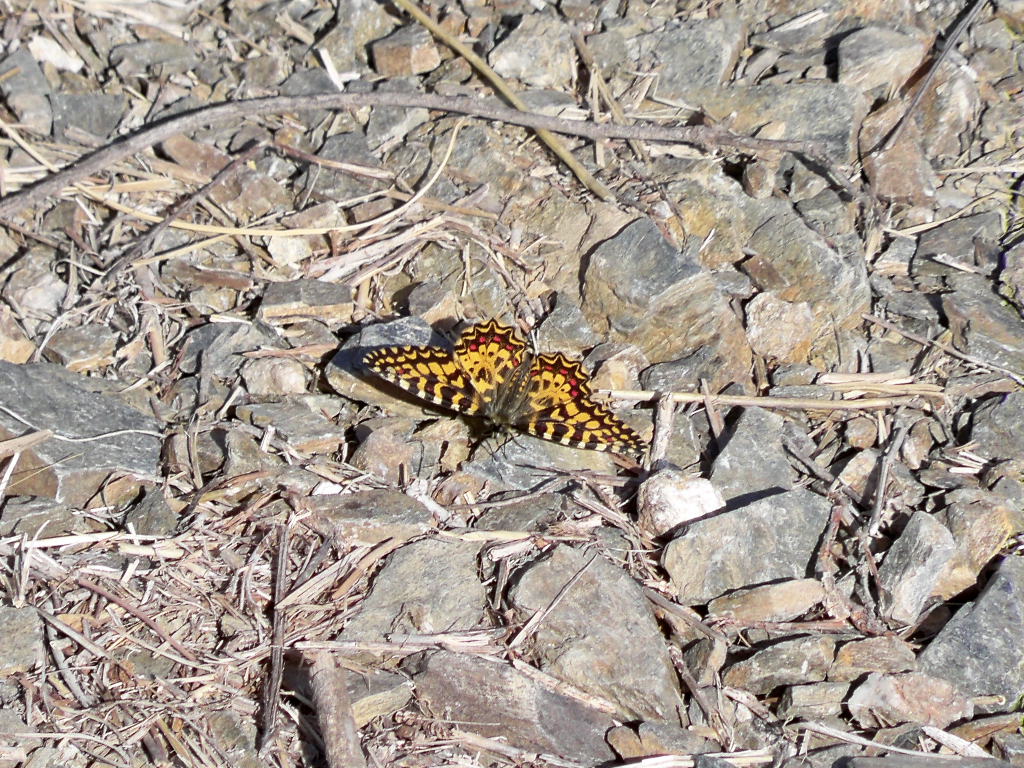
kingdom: Animalia
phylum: Arthropoda
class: Insecta
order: Lepidoptera
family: Papilionidae
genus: Zerynthia
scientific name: Zerynthia rumina
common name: Spanish festoon
